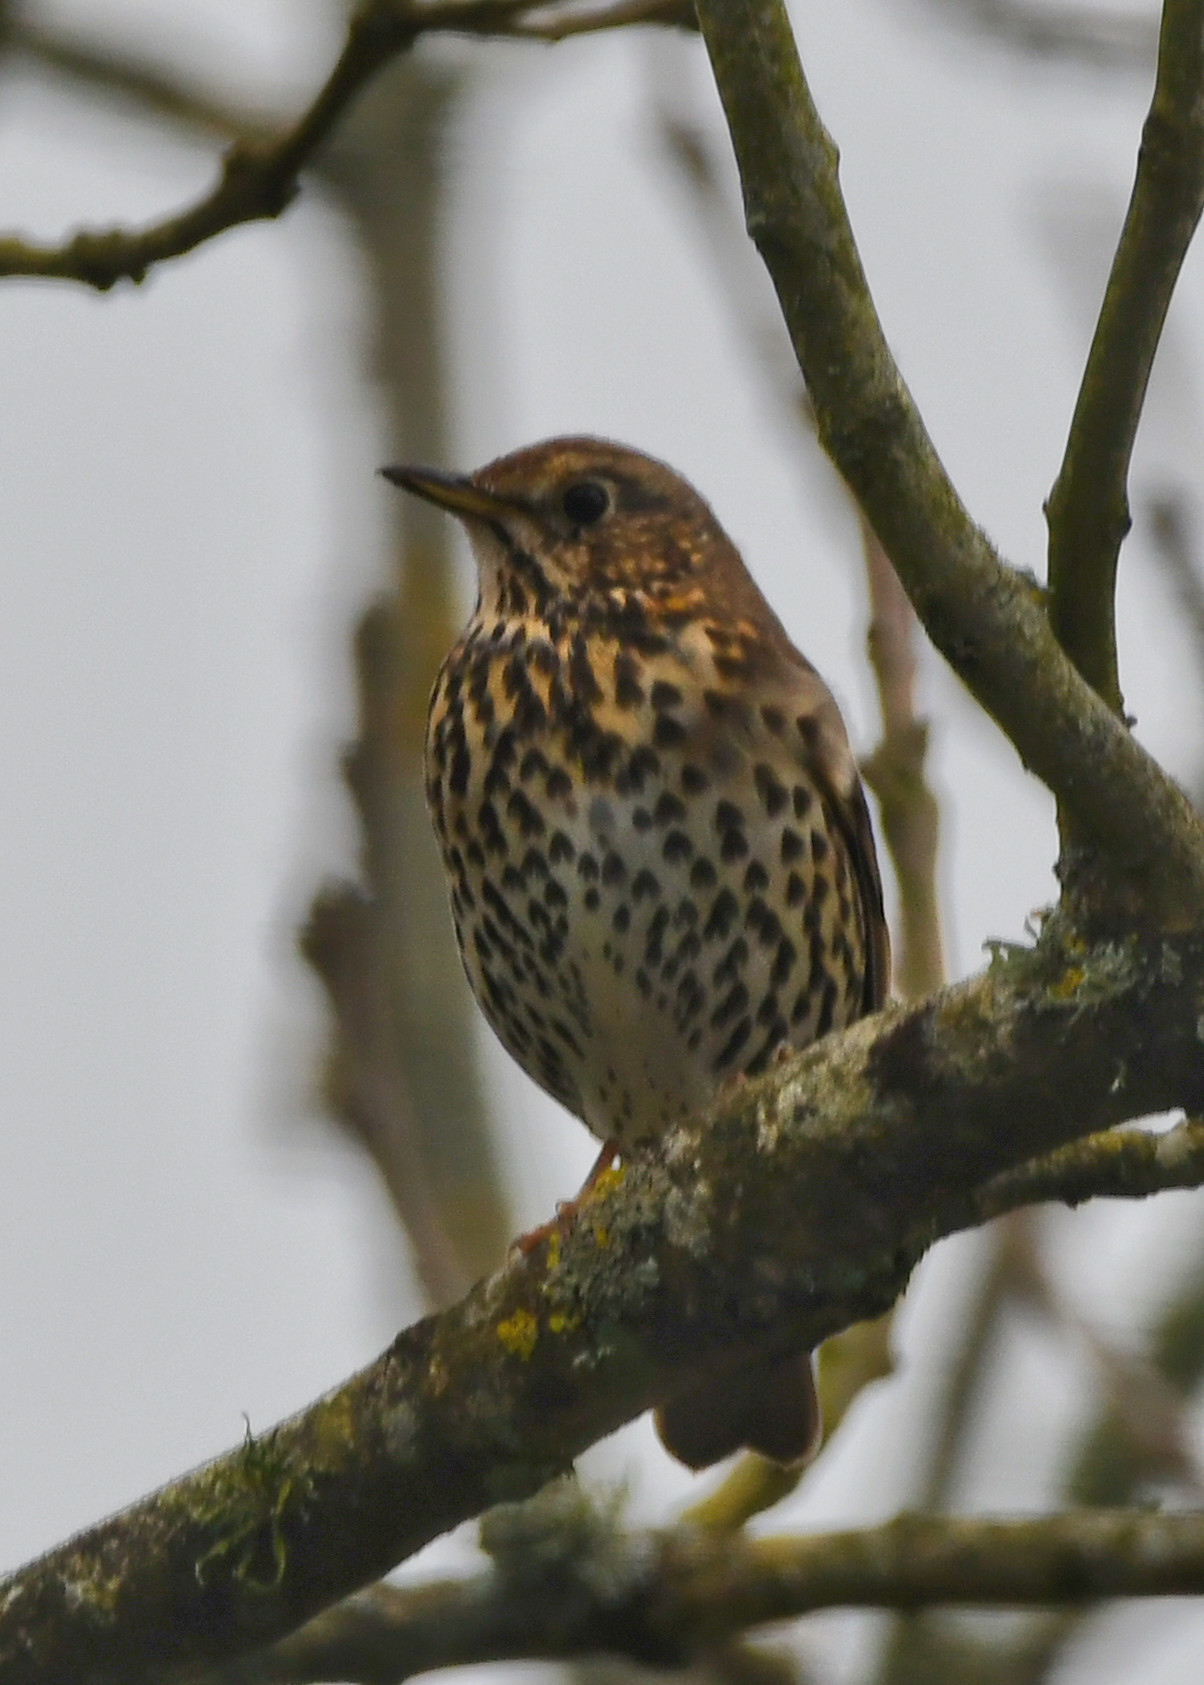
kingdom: Animalia
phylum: Chordata
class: Aves
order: Passeriformes
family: Turdidae
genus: Turdus
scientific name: Turdus philomelos
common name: Song thrush
